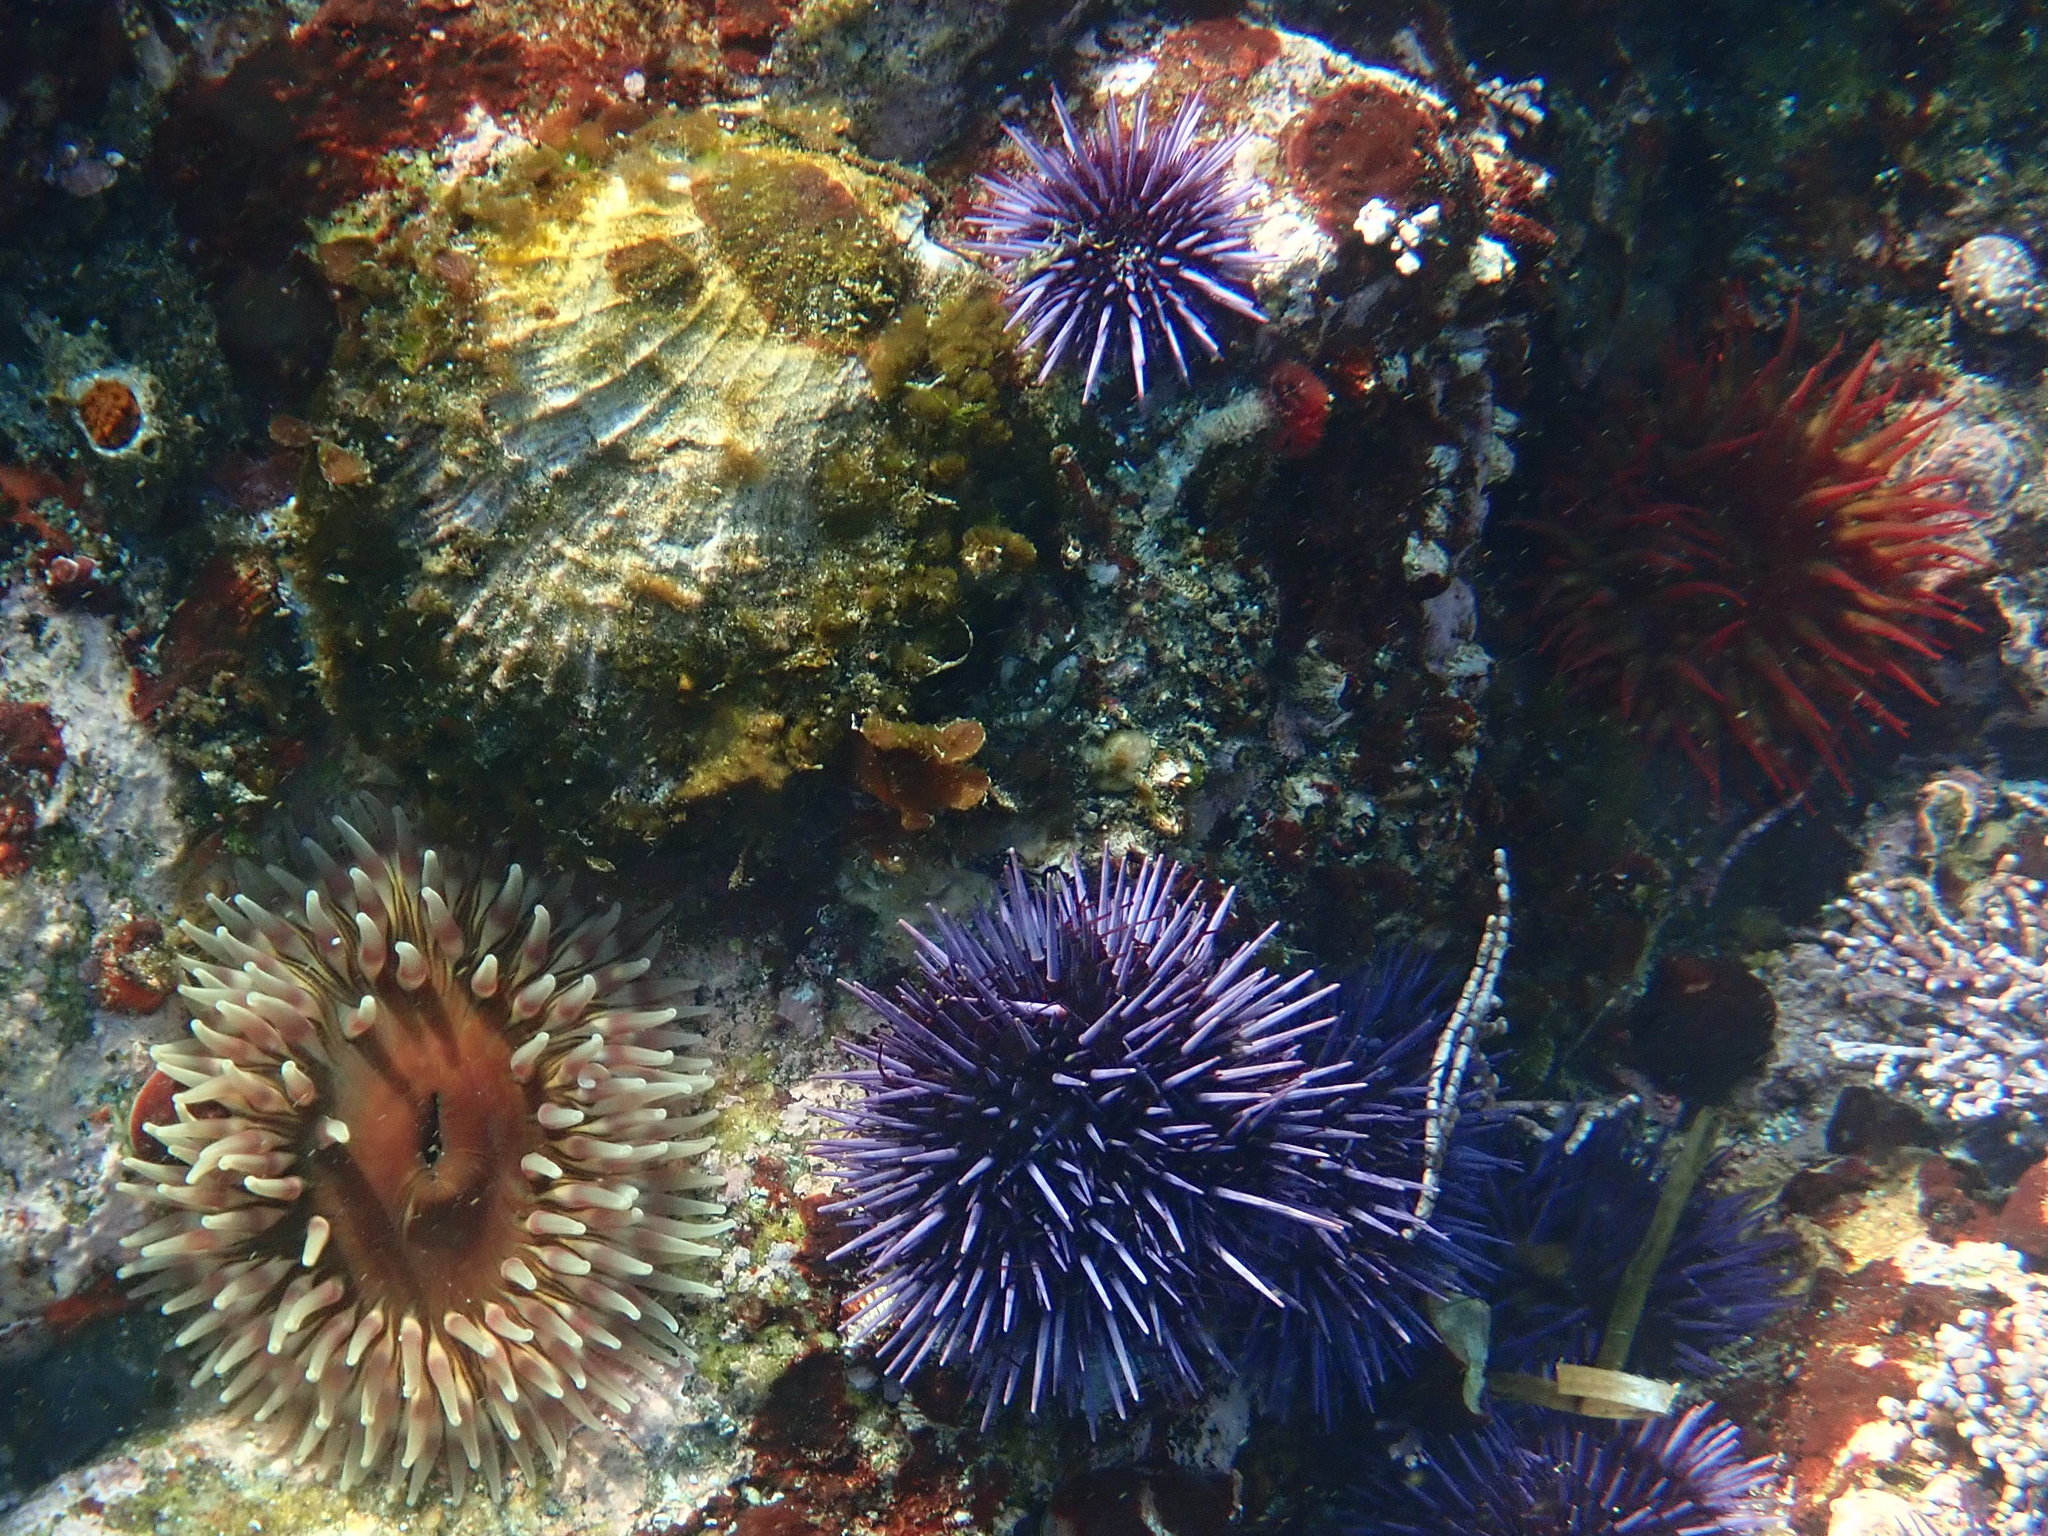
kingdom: Animalia
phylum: Mollusca
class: Bivalvia
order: Pectinida
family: Pectinidae
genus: Crassadoma
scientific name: Crassadoma gigantea
